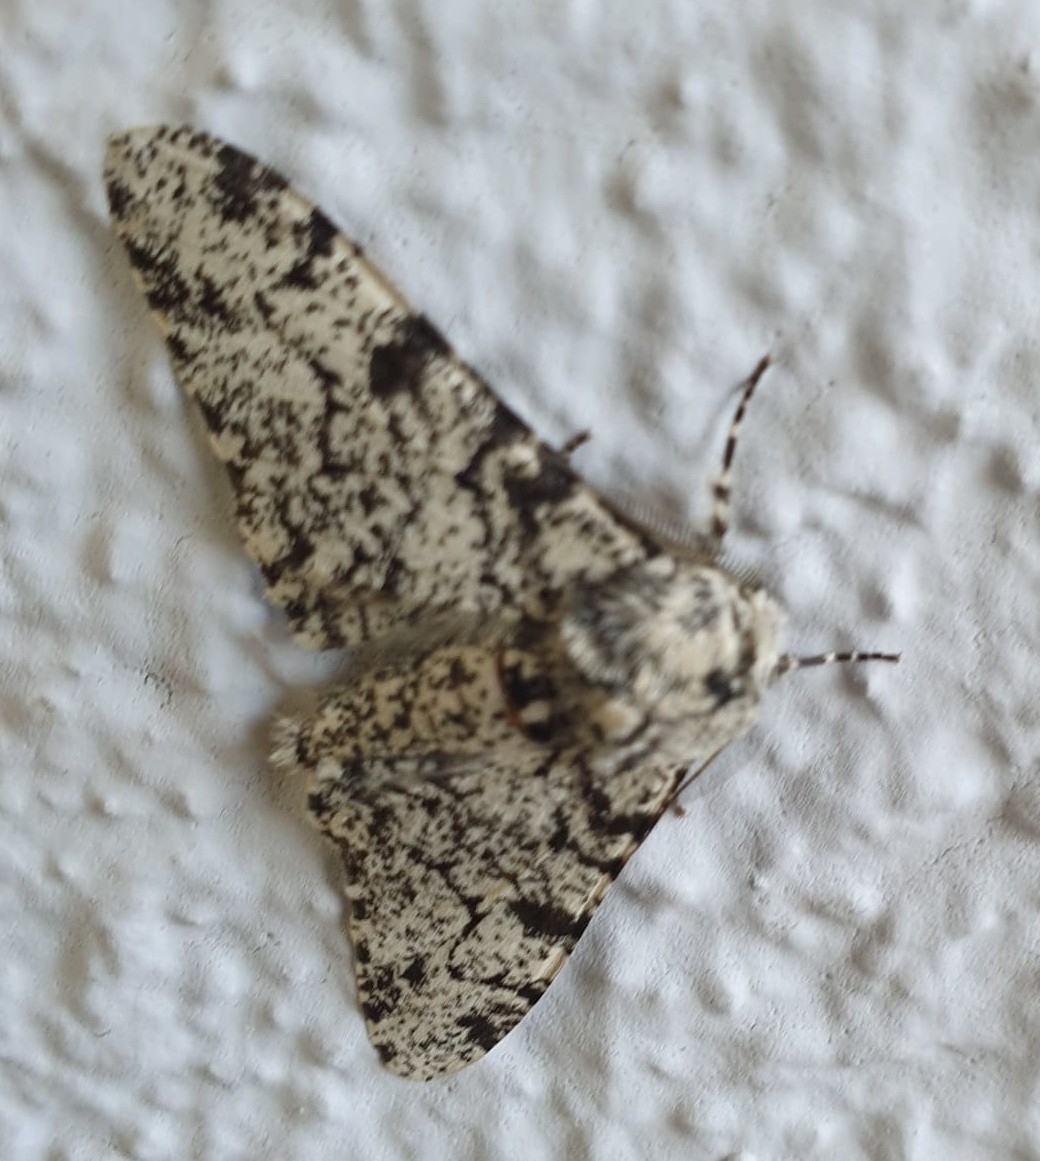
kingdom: Animalia
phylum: Arthropoda
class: Insecta
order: Lepidoptera
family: Geometridae
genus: Biston
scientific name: Biston betularia
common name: Peppered moth
